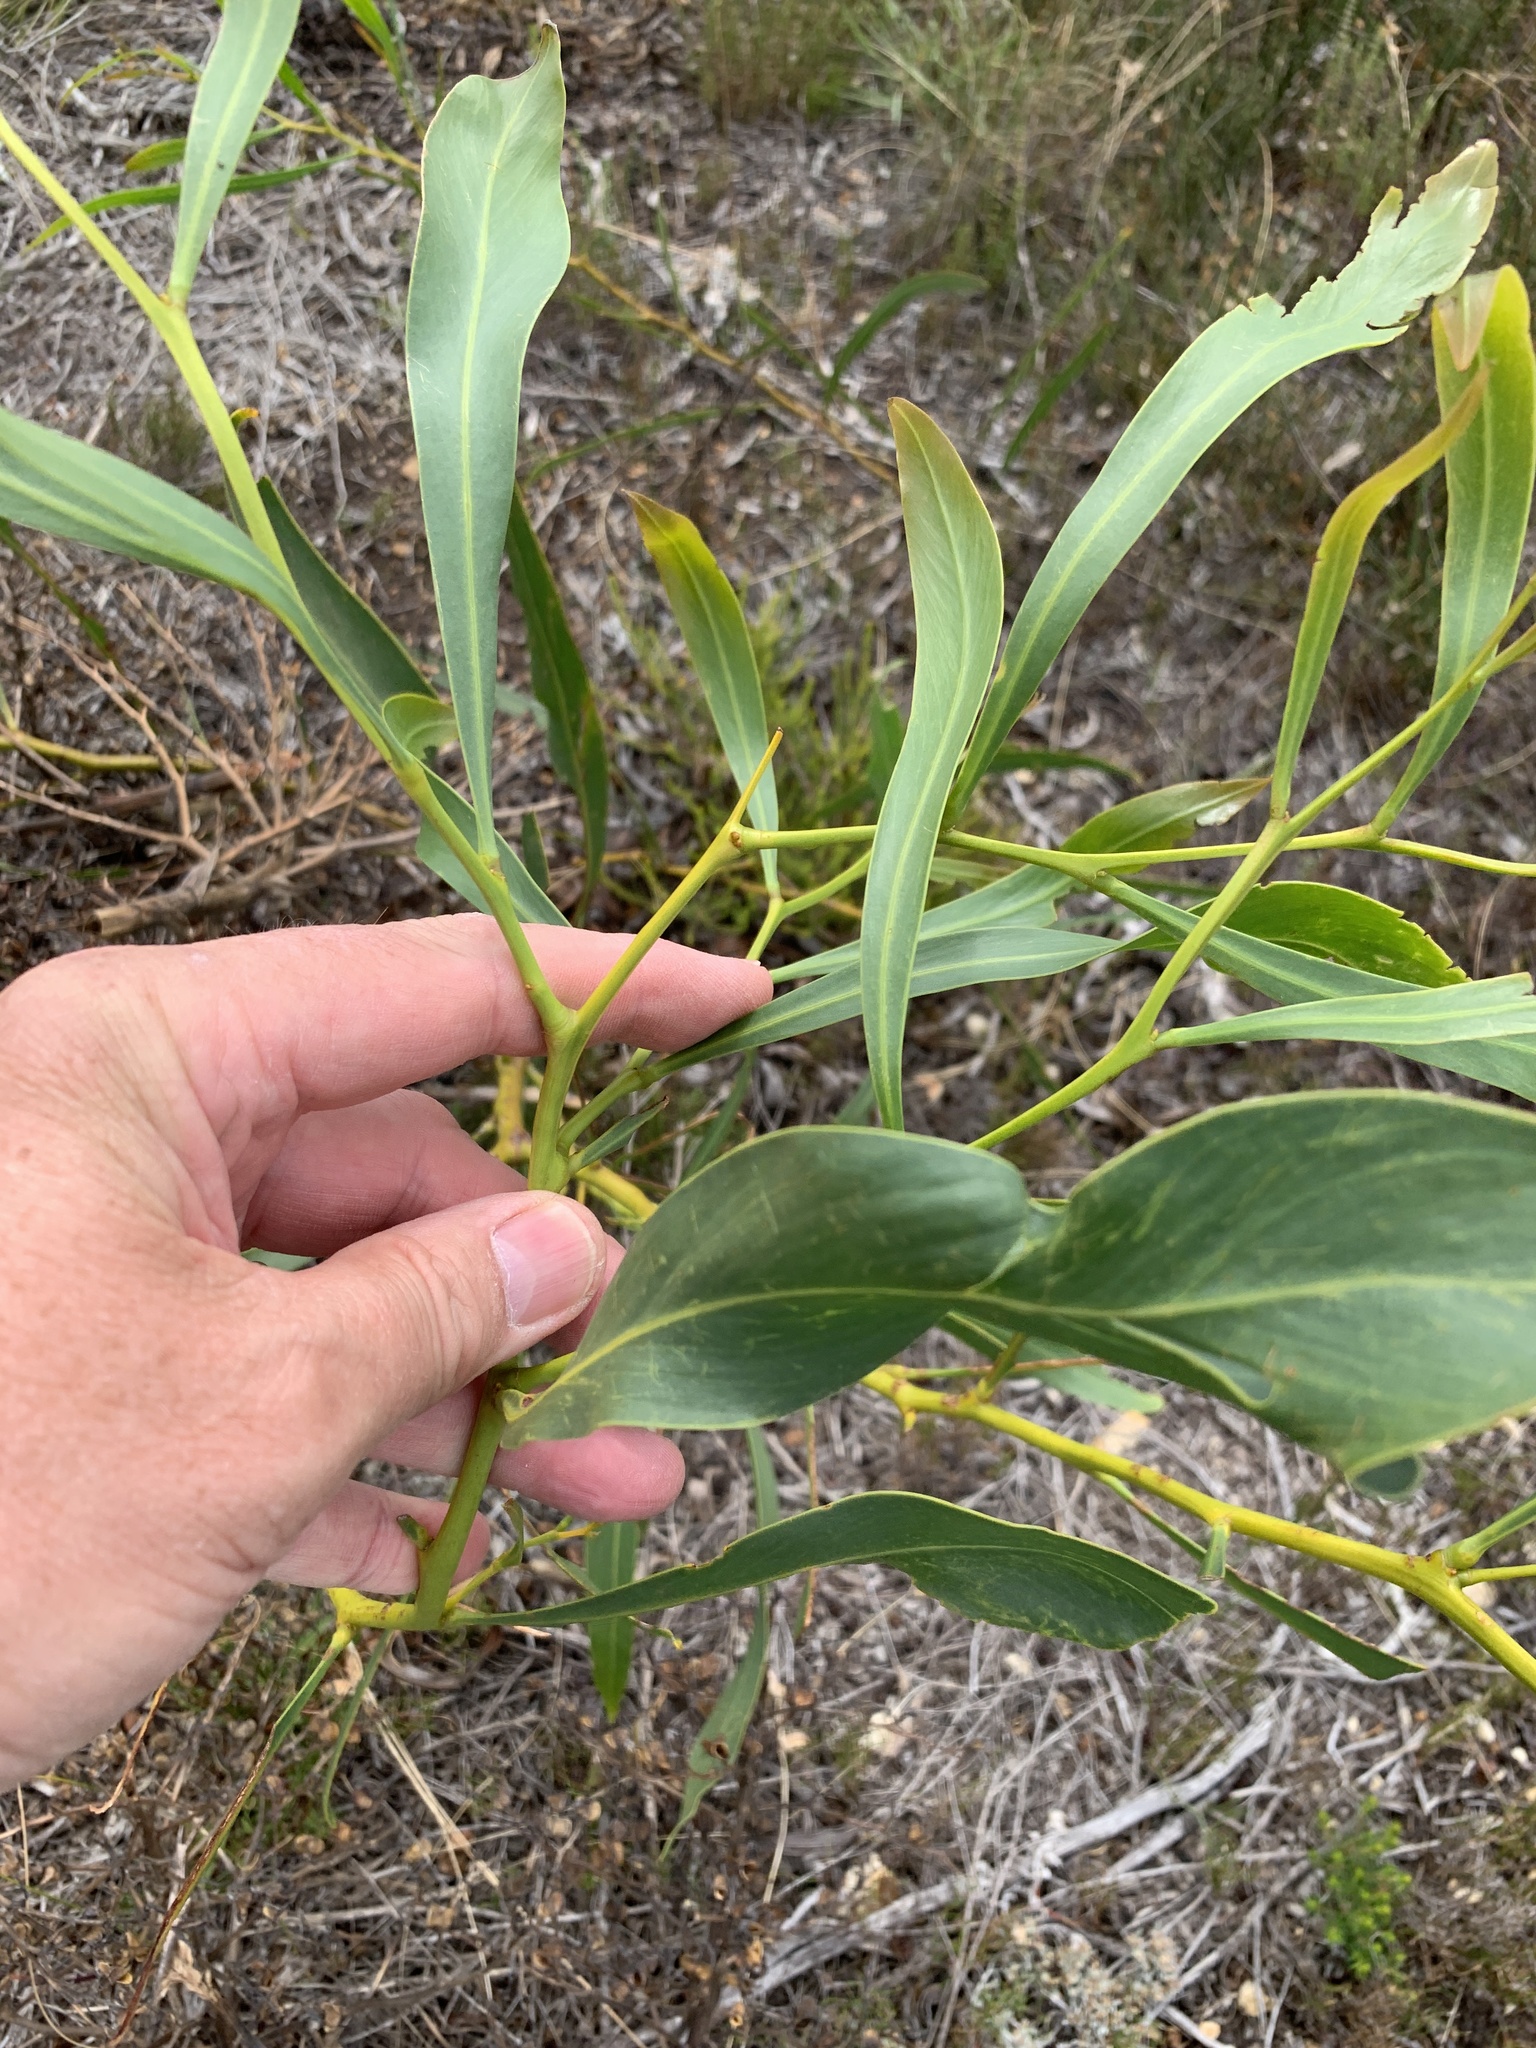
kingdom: Plantae
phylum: Tracheophyta
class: Magnoliopsida
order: Fabales
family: Fabaceae
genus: Acacia
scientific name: Acacia saligna
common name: Orange wattle
